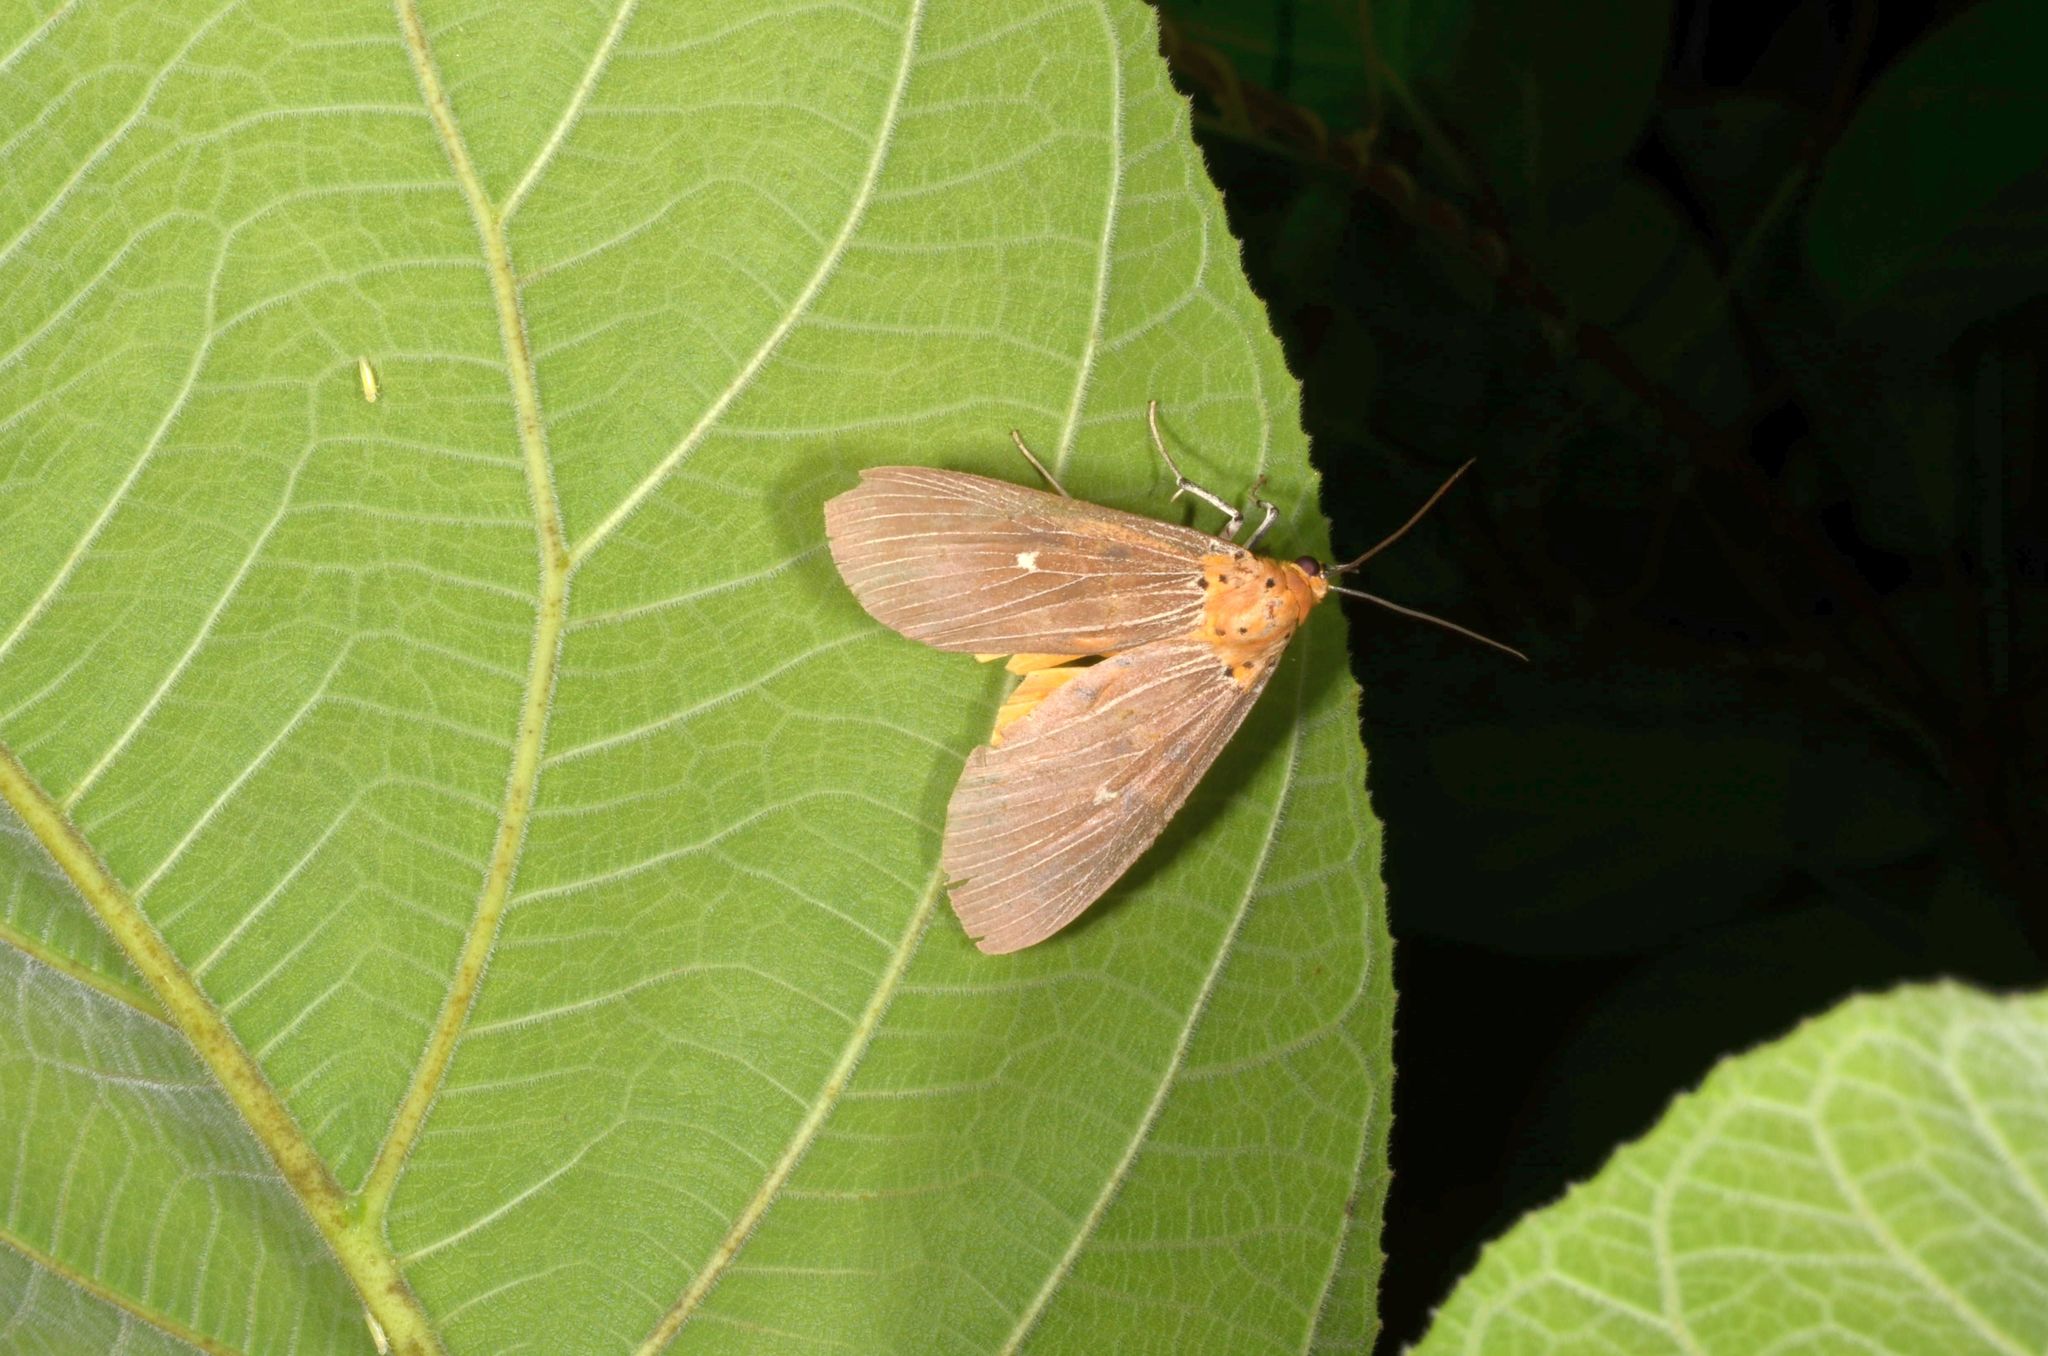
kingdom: Animalia
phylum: Arthropoda
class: Insecta
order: Lepidoptera
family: Erebidae
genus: Asota
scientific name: Asota caricae
